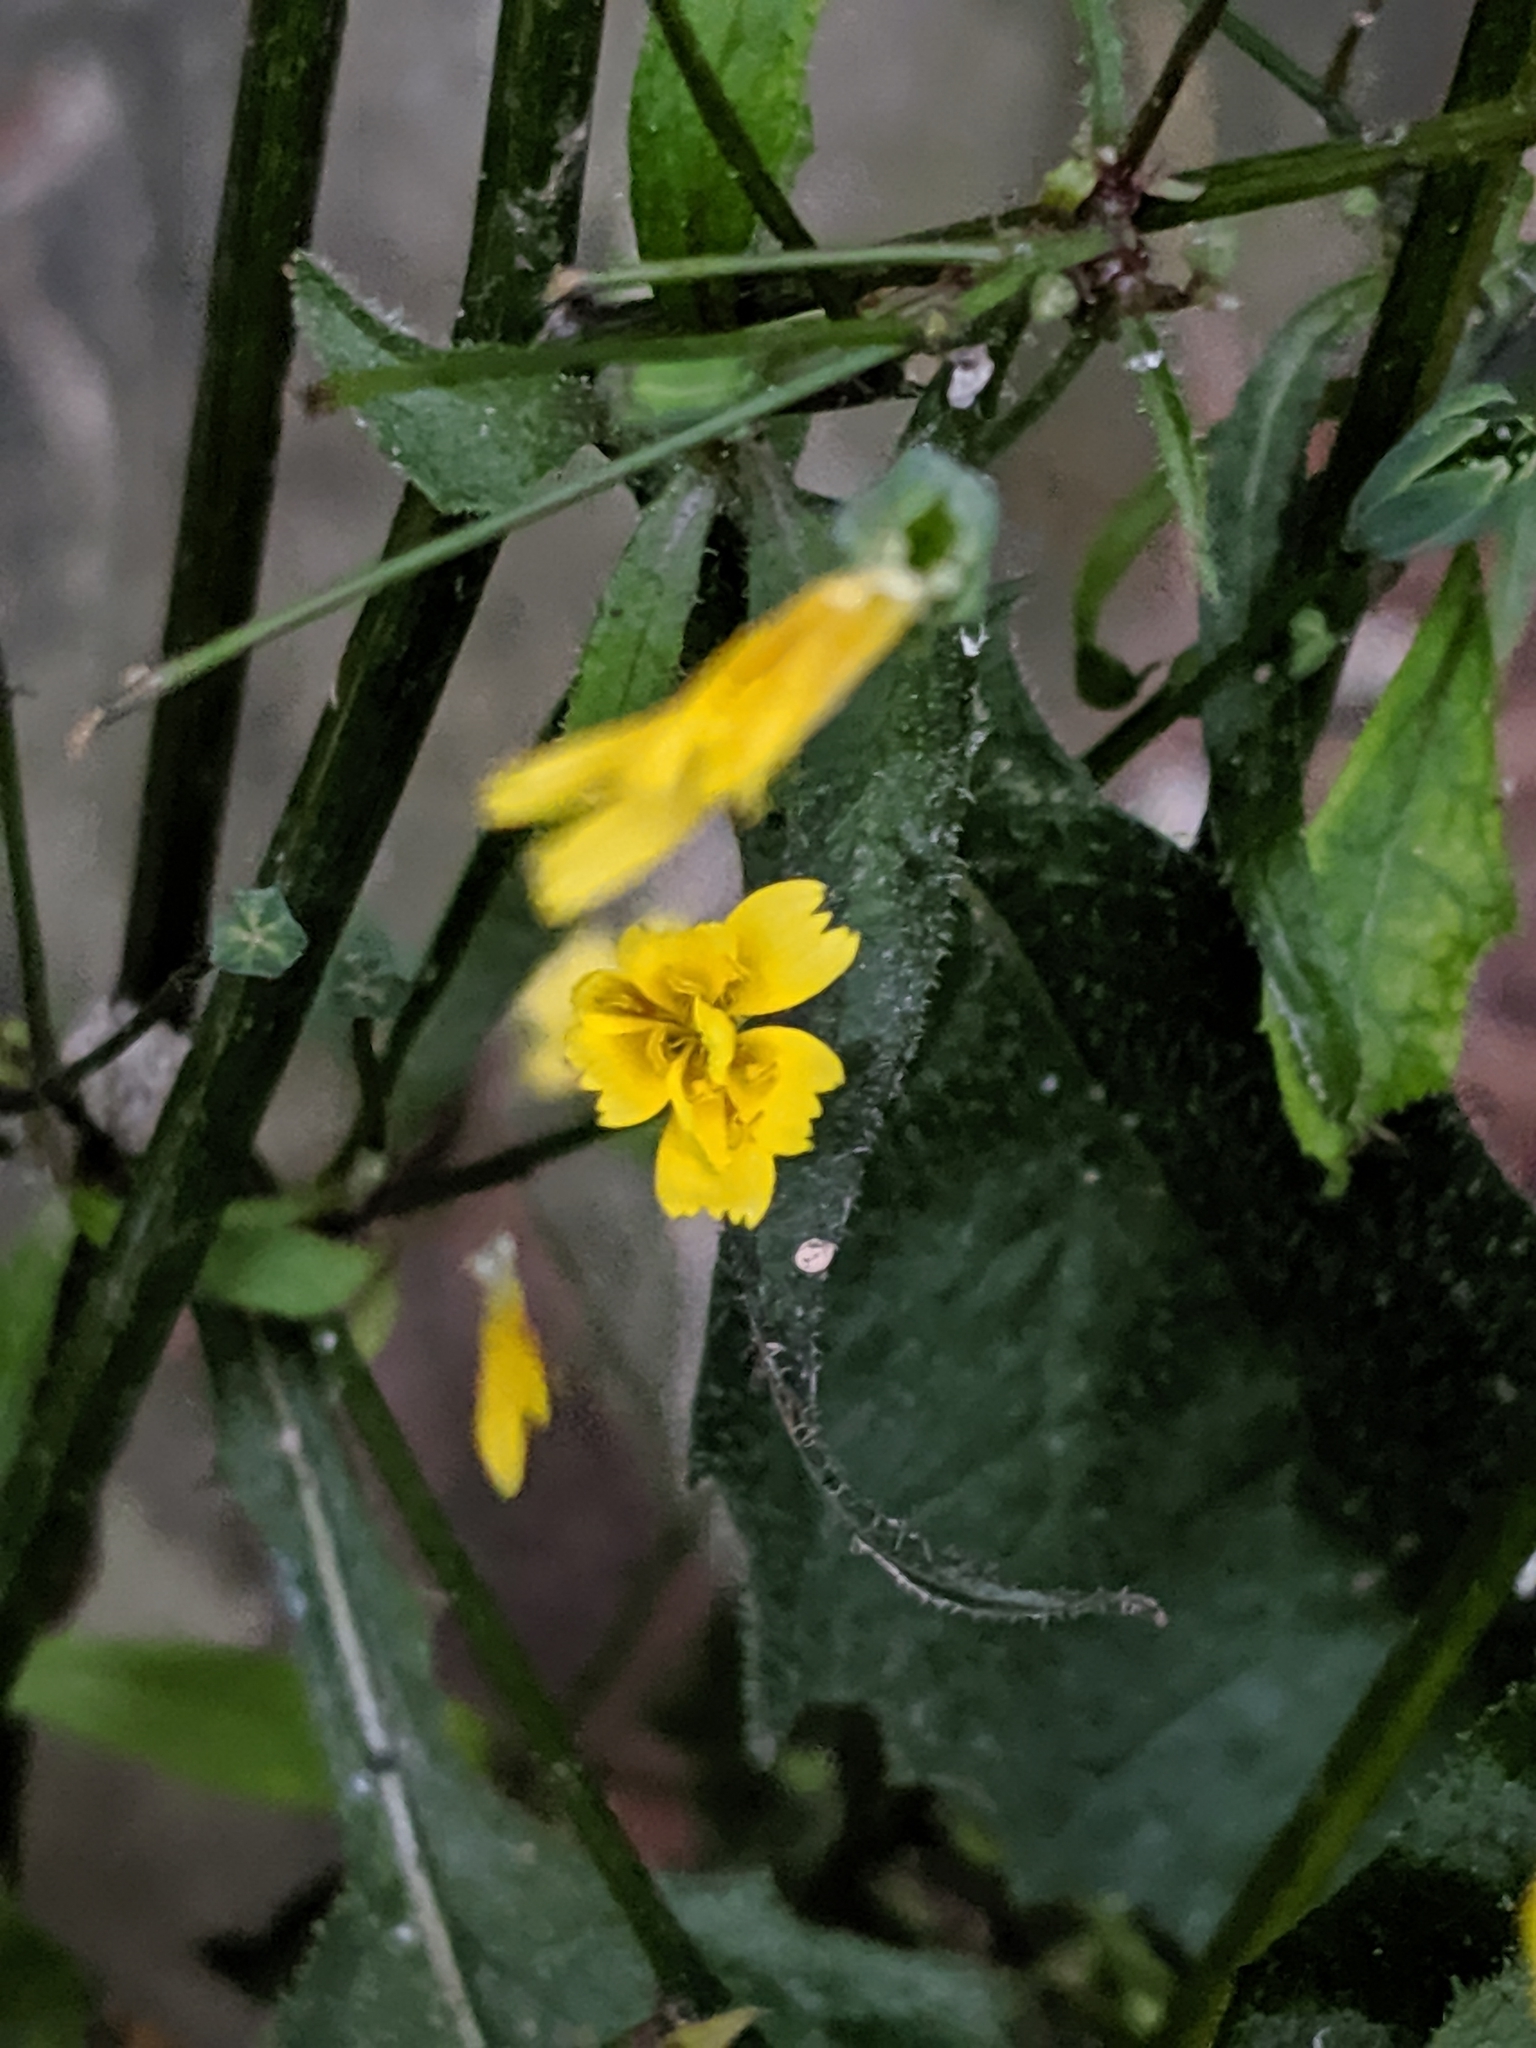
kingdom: Plantae
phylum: Tracheophyta
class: Magnoliopsida
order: Asterales
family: Asteraceae
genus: Lapsana
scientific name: Lapsana communis
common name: Nipplewort
